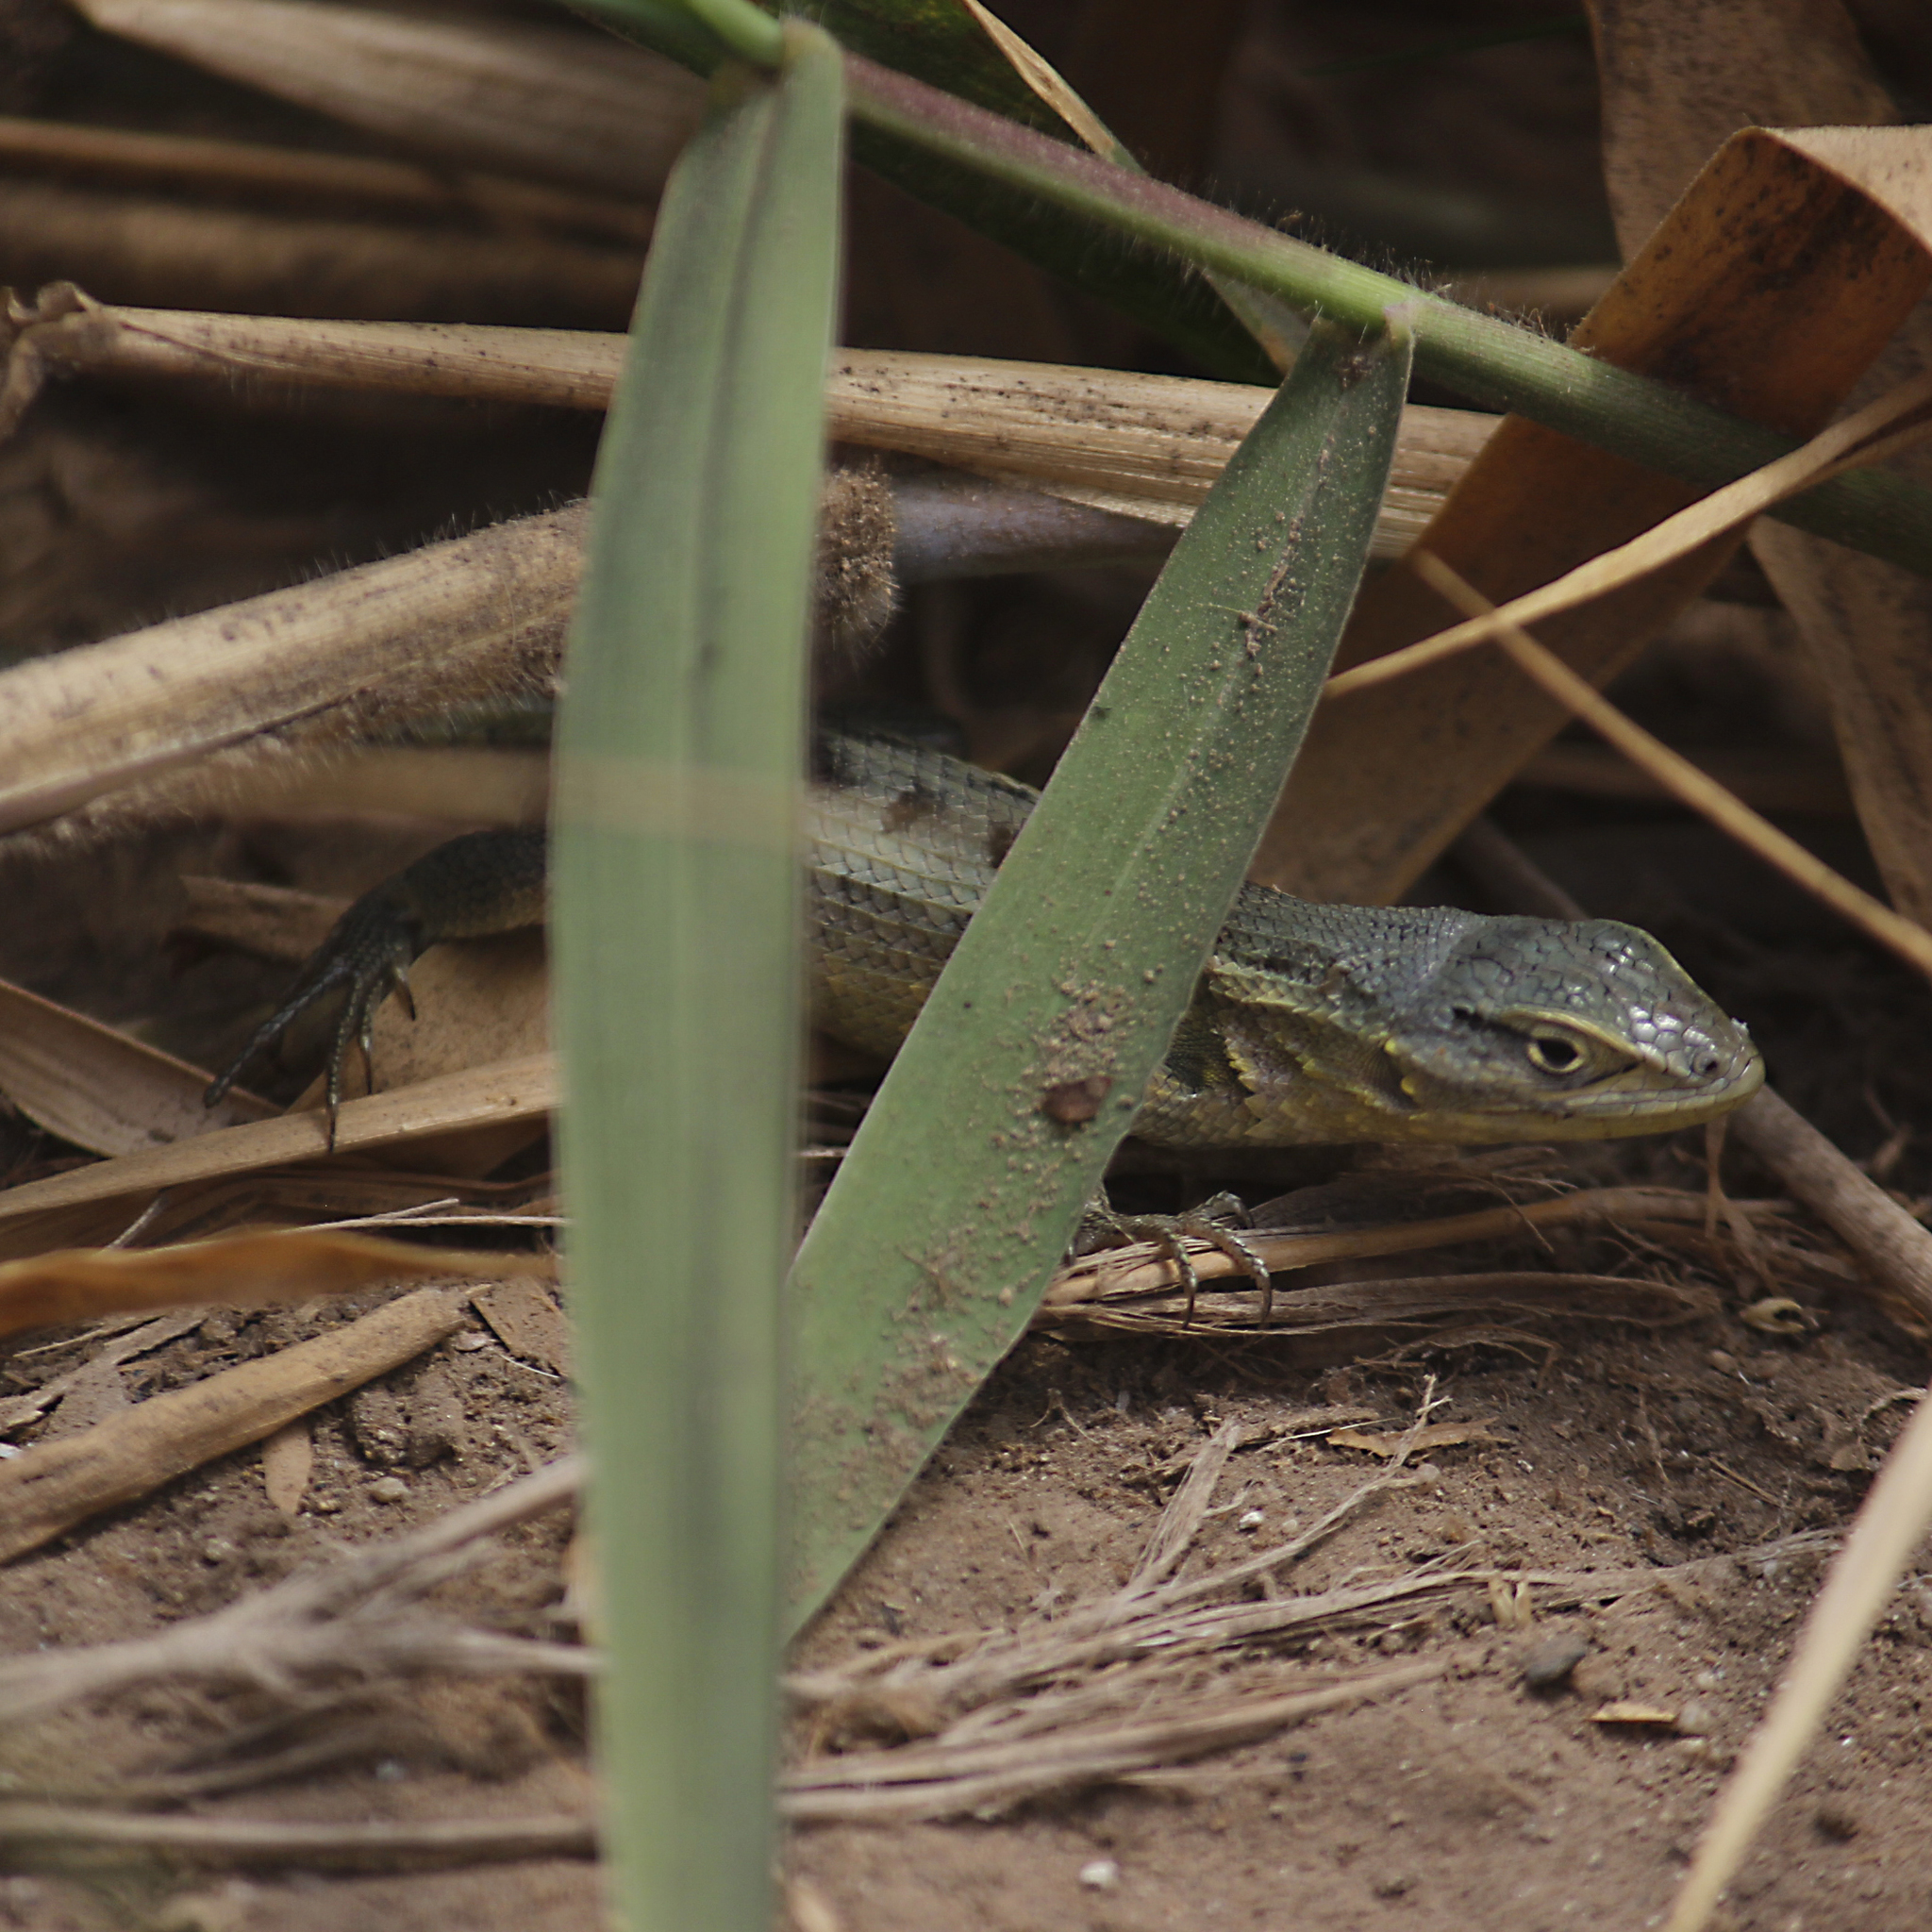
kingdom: Animalia
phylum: Chordata
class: Squamata
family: Tropiduridae
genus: Stenocercus
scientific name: Stenocercus modestus
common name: Modest whorltail iguana
